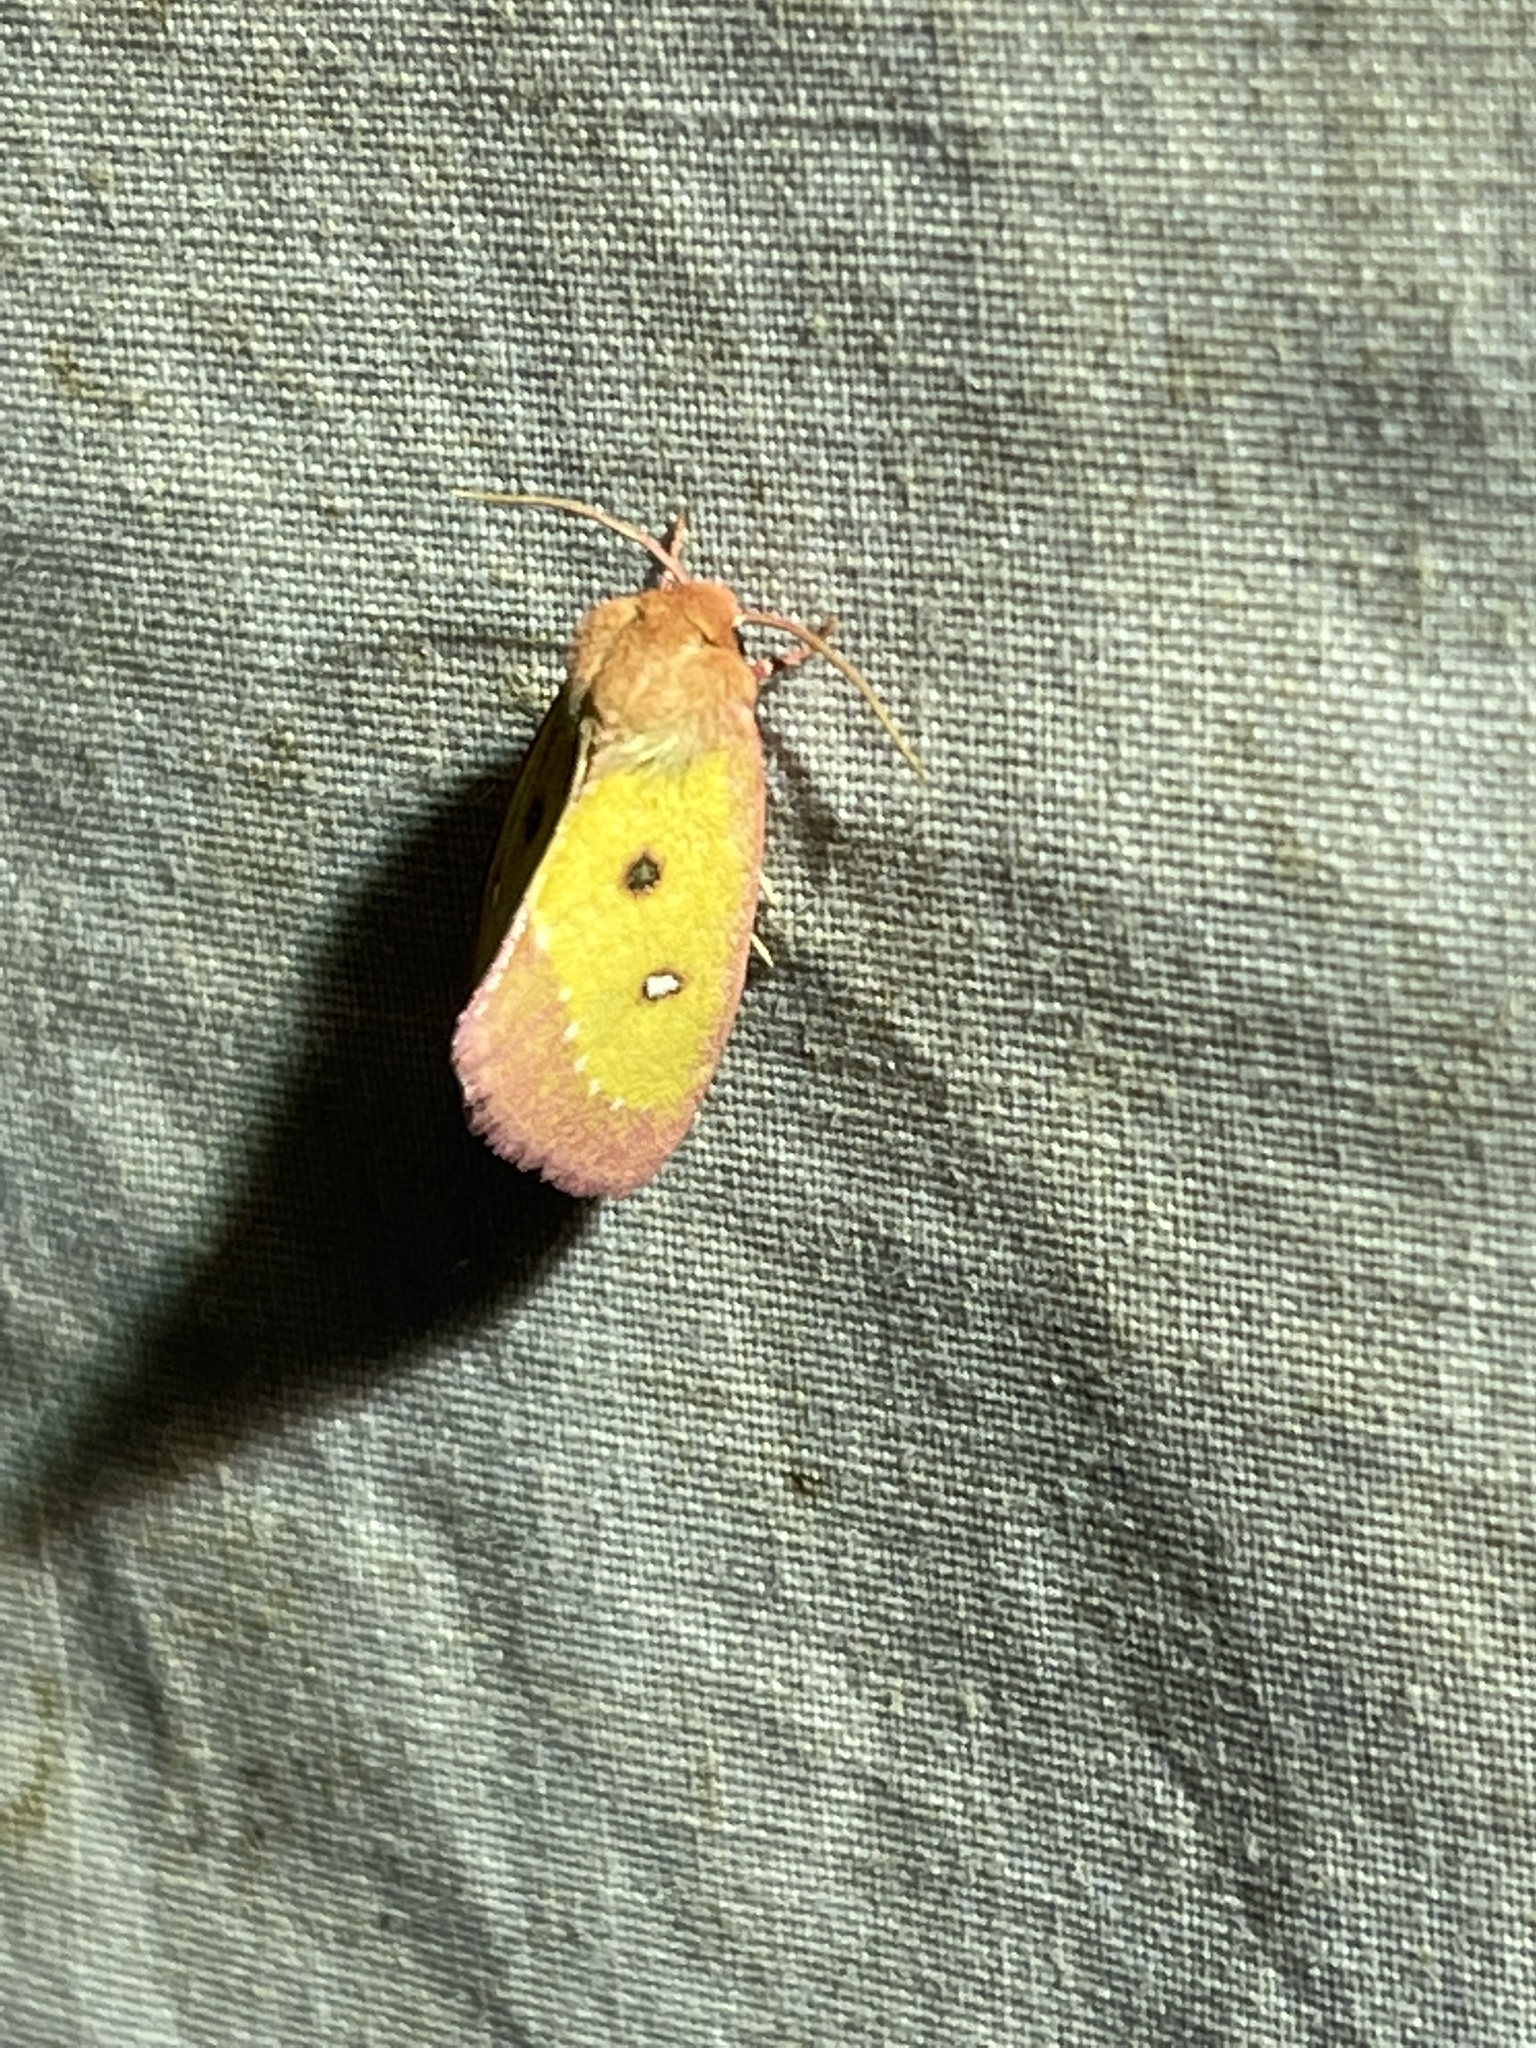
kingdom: Animalia
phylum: Arthropoda
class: Insecta
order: Lepidoptera
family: Noctuidae
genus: Derrima
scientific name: Derrima stellata
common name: Pink star moth
